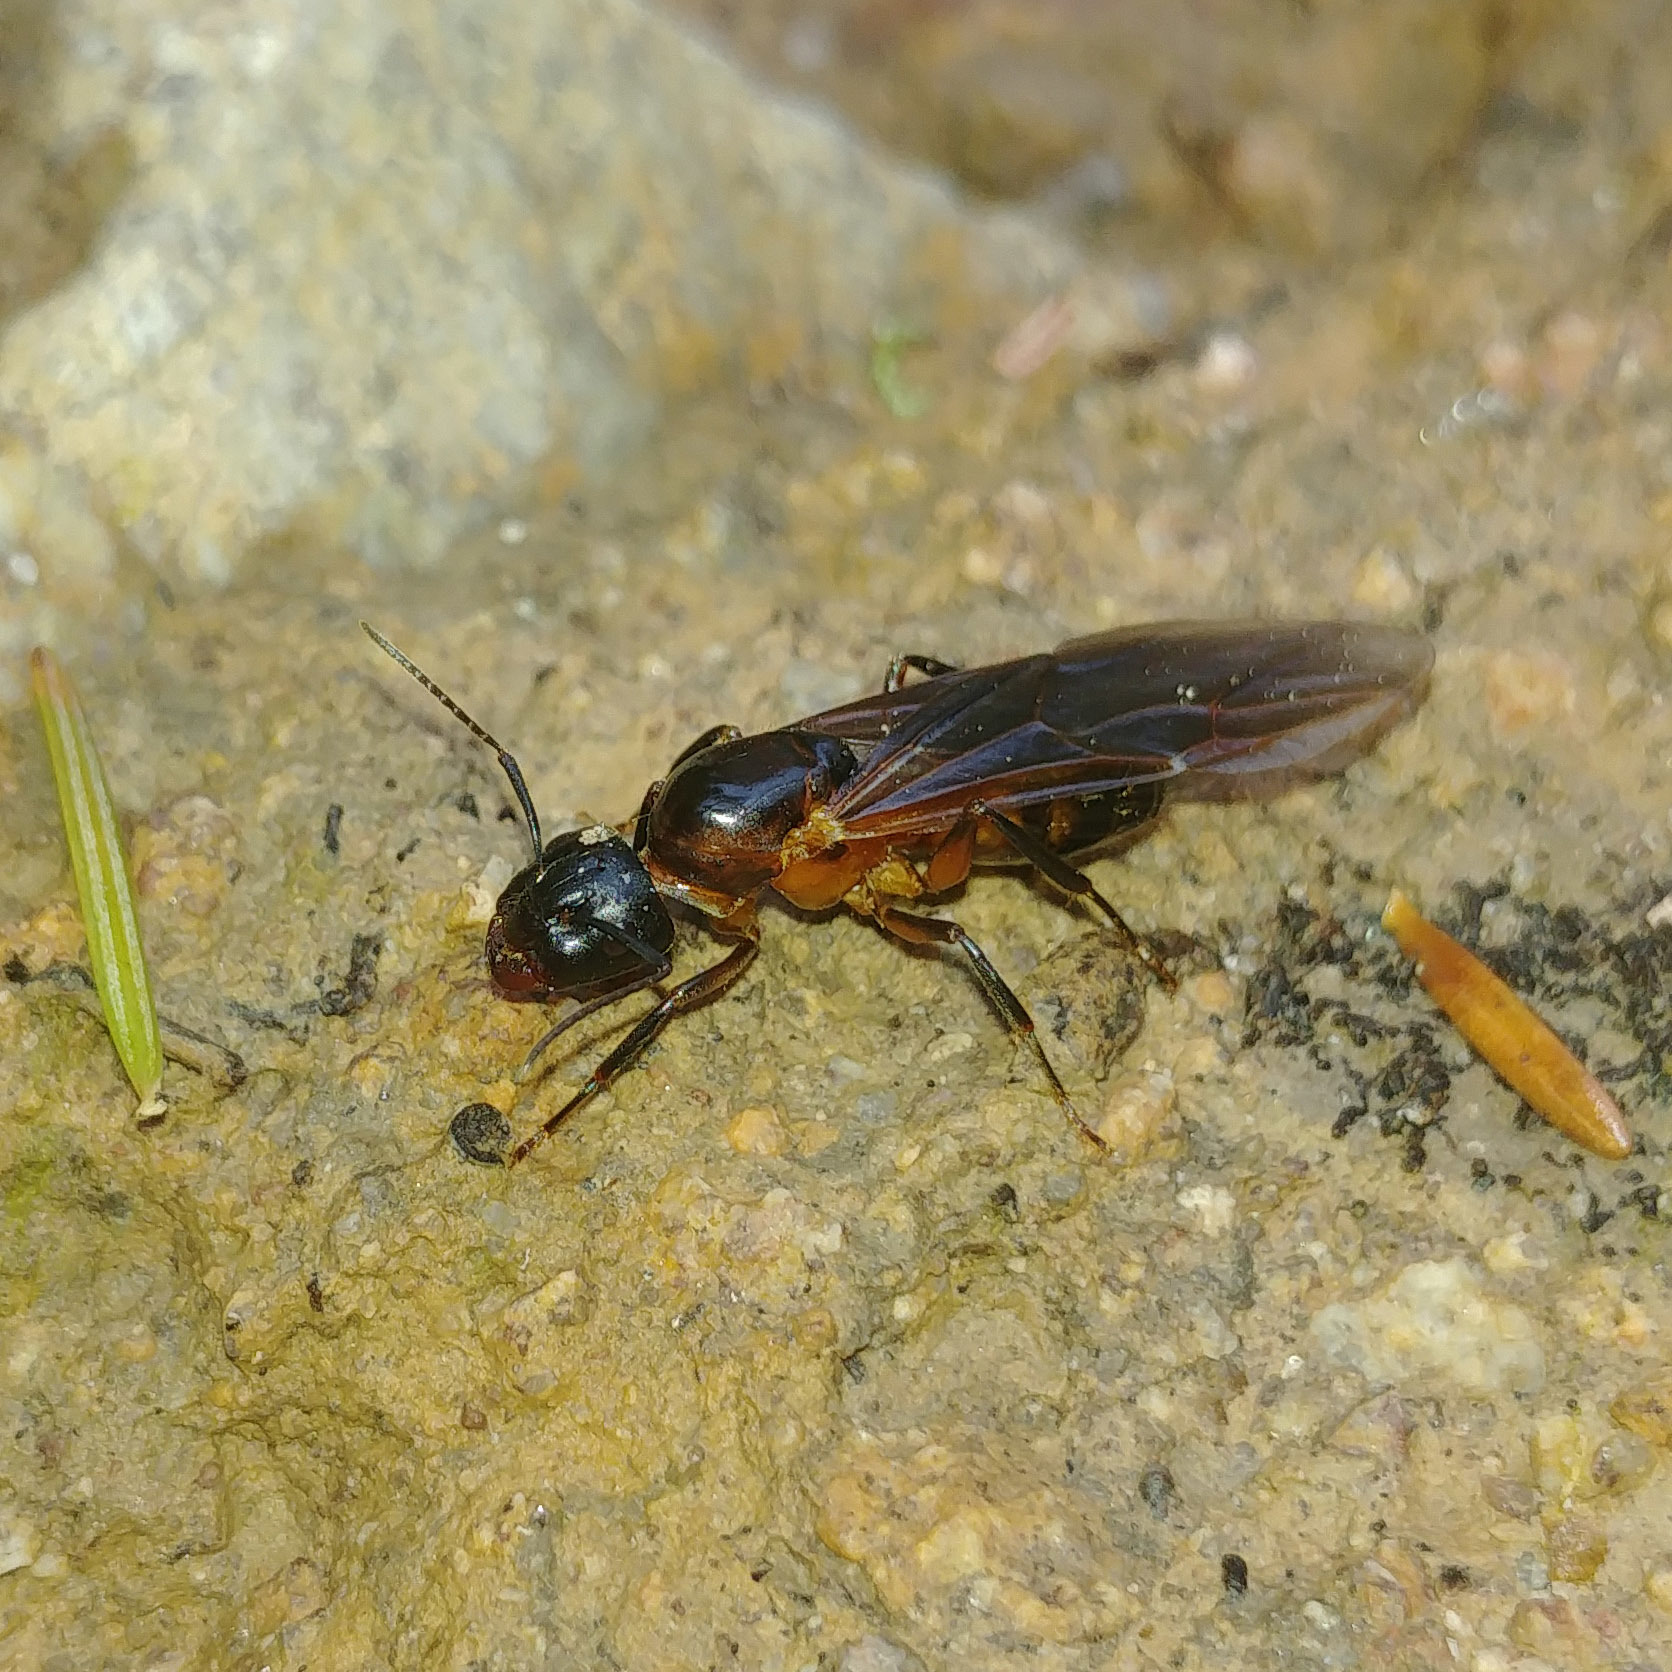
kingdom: Animalia
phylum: Arthropoda
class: Insecta
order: Hymenoptera
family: Formicidae
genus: Camponotus
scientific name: Camponotus ligniperdus
